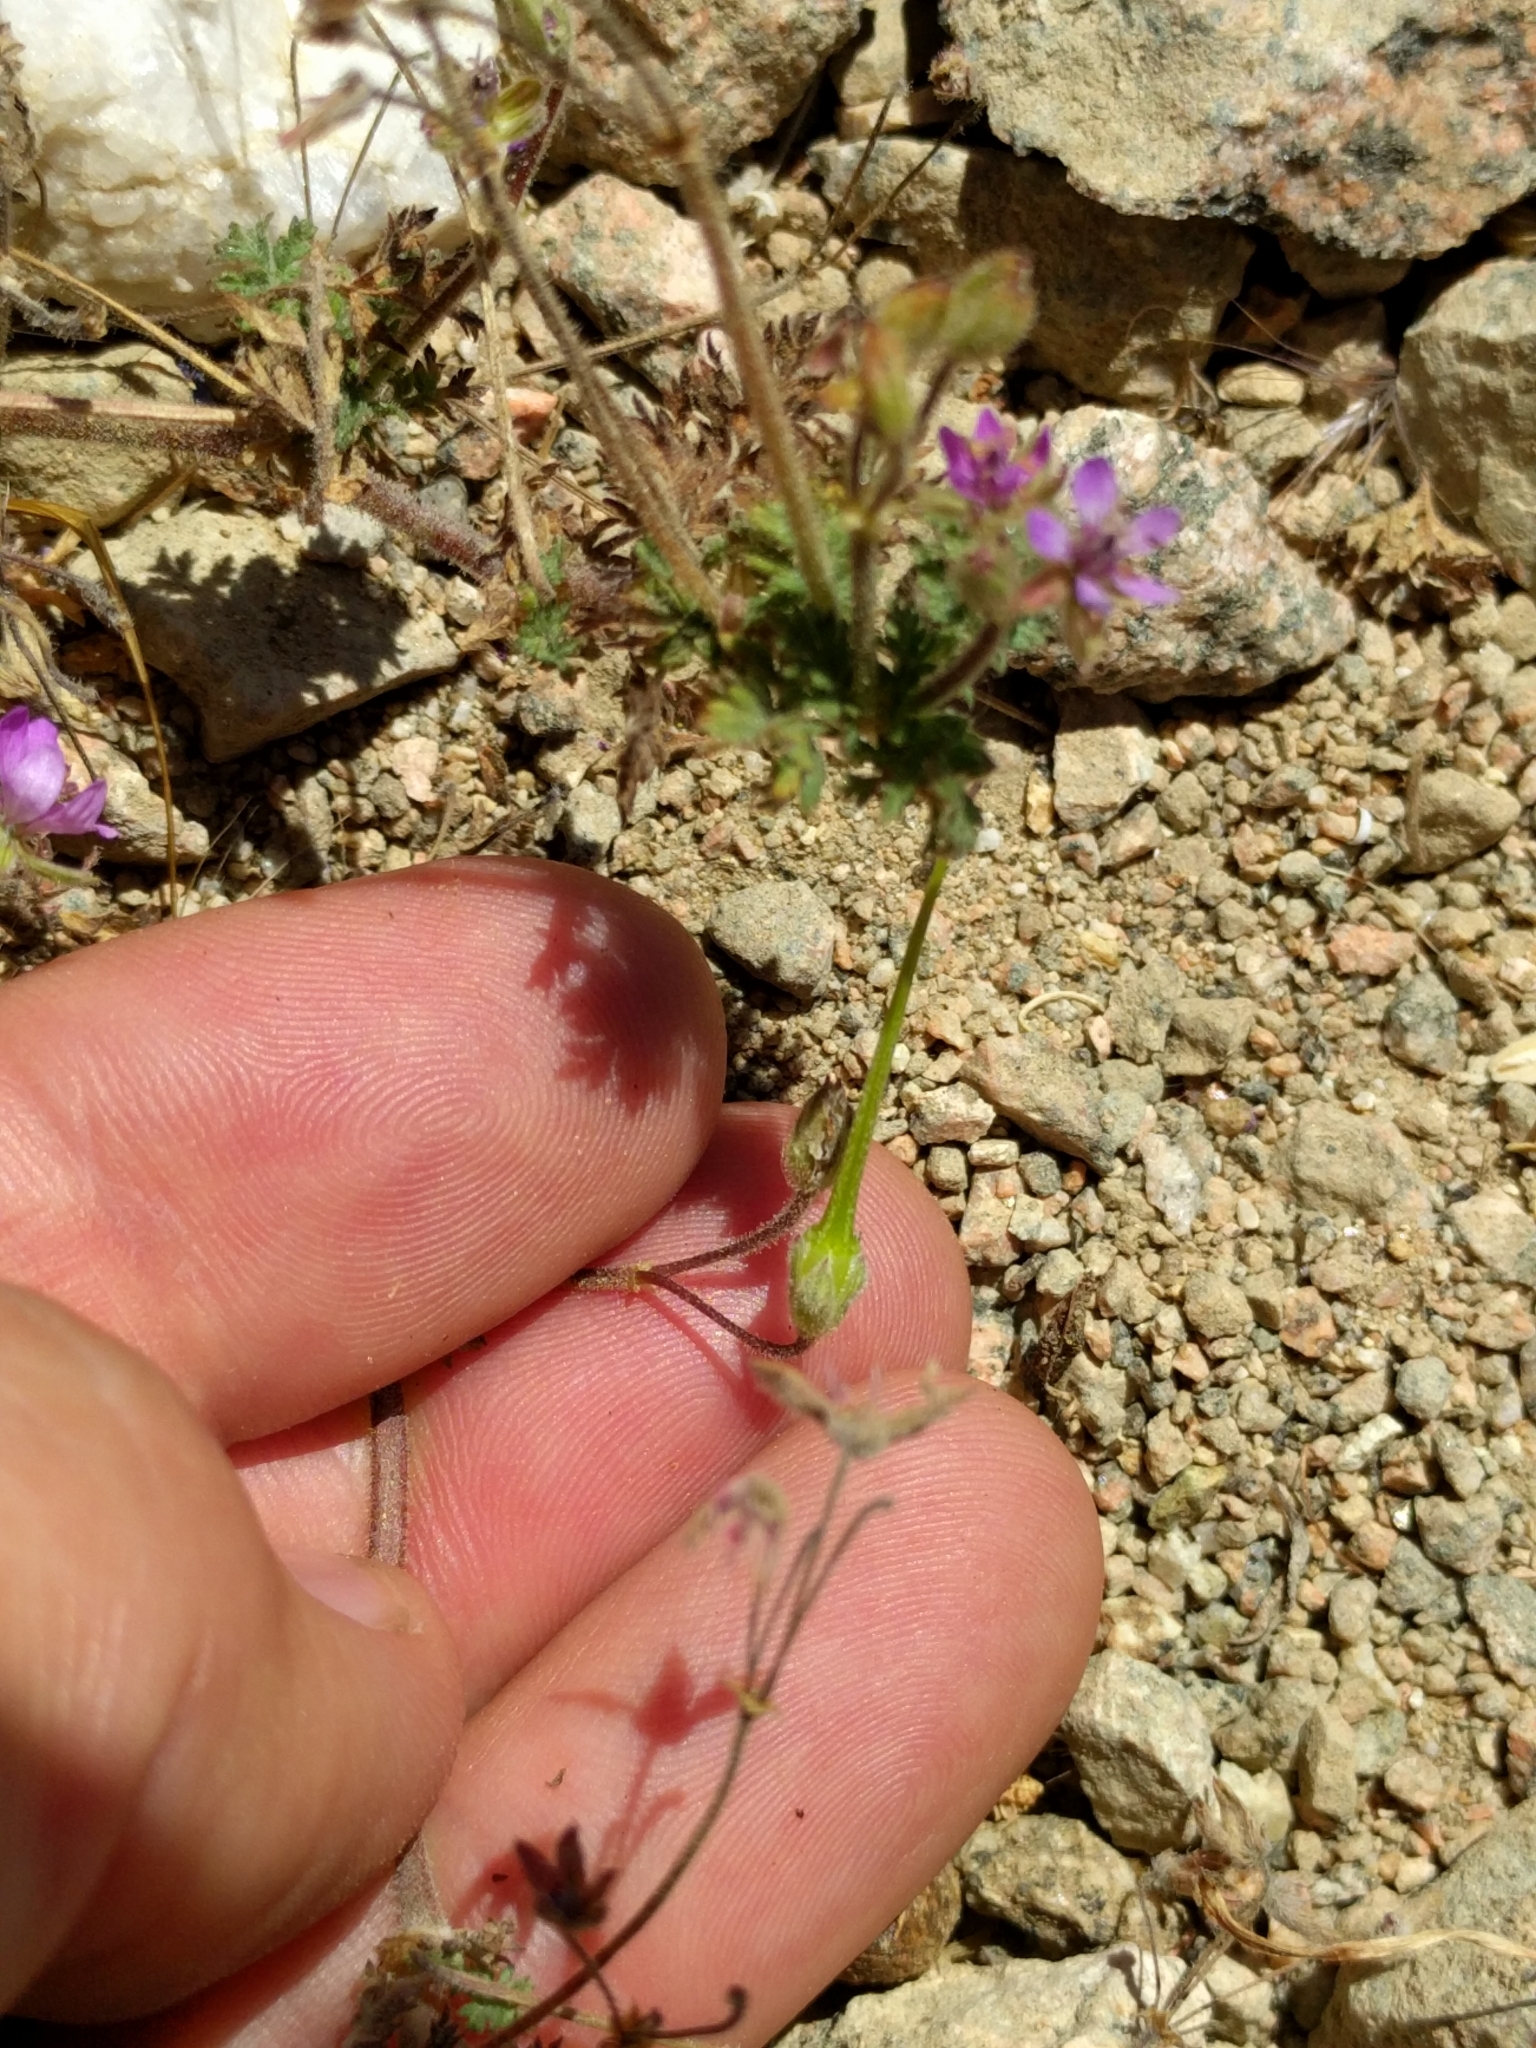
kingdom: Plantae
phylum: Tracheophyta
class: Magnoliopsida
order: Geraniales
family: Geraniaceae
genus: Erodium
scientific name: Erodium cicutarium
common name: Common stork's-bill
